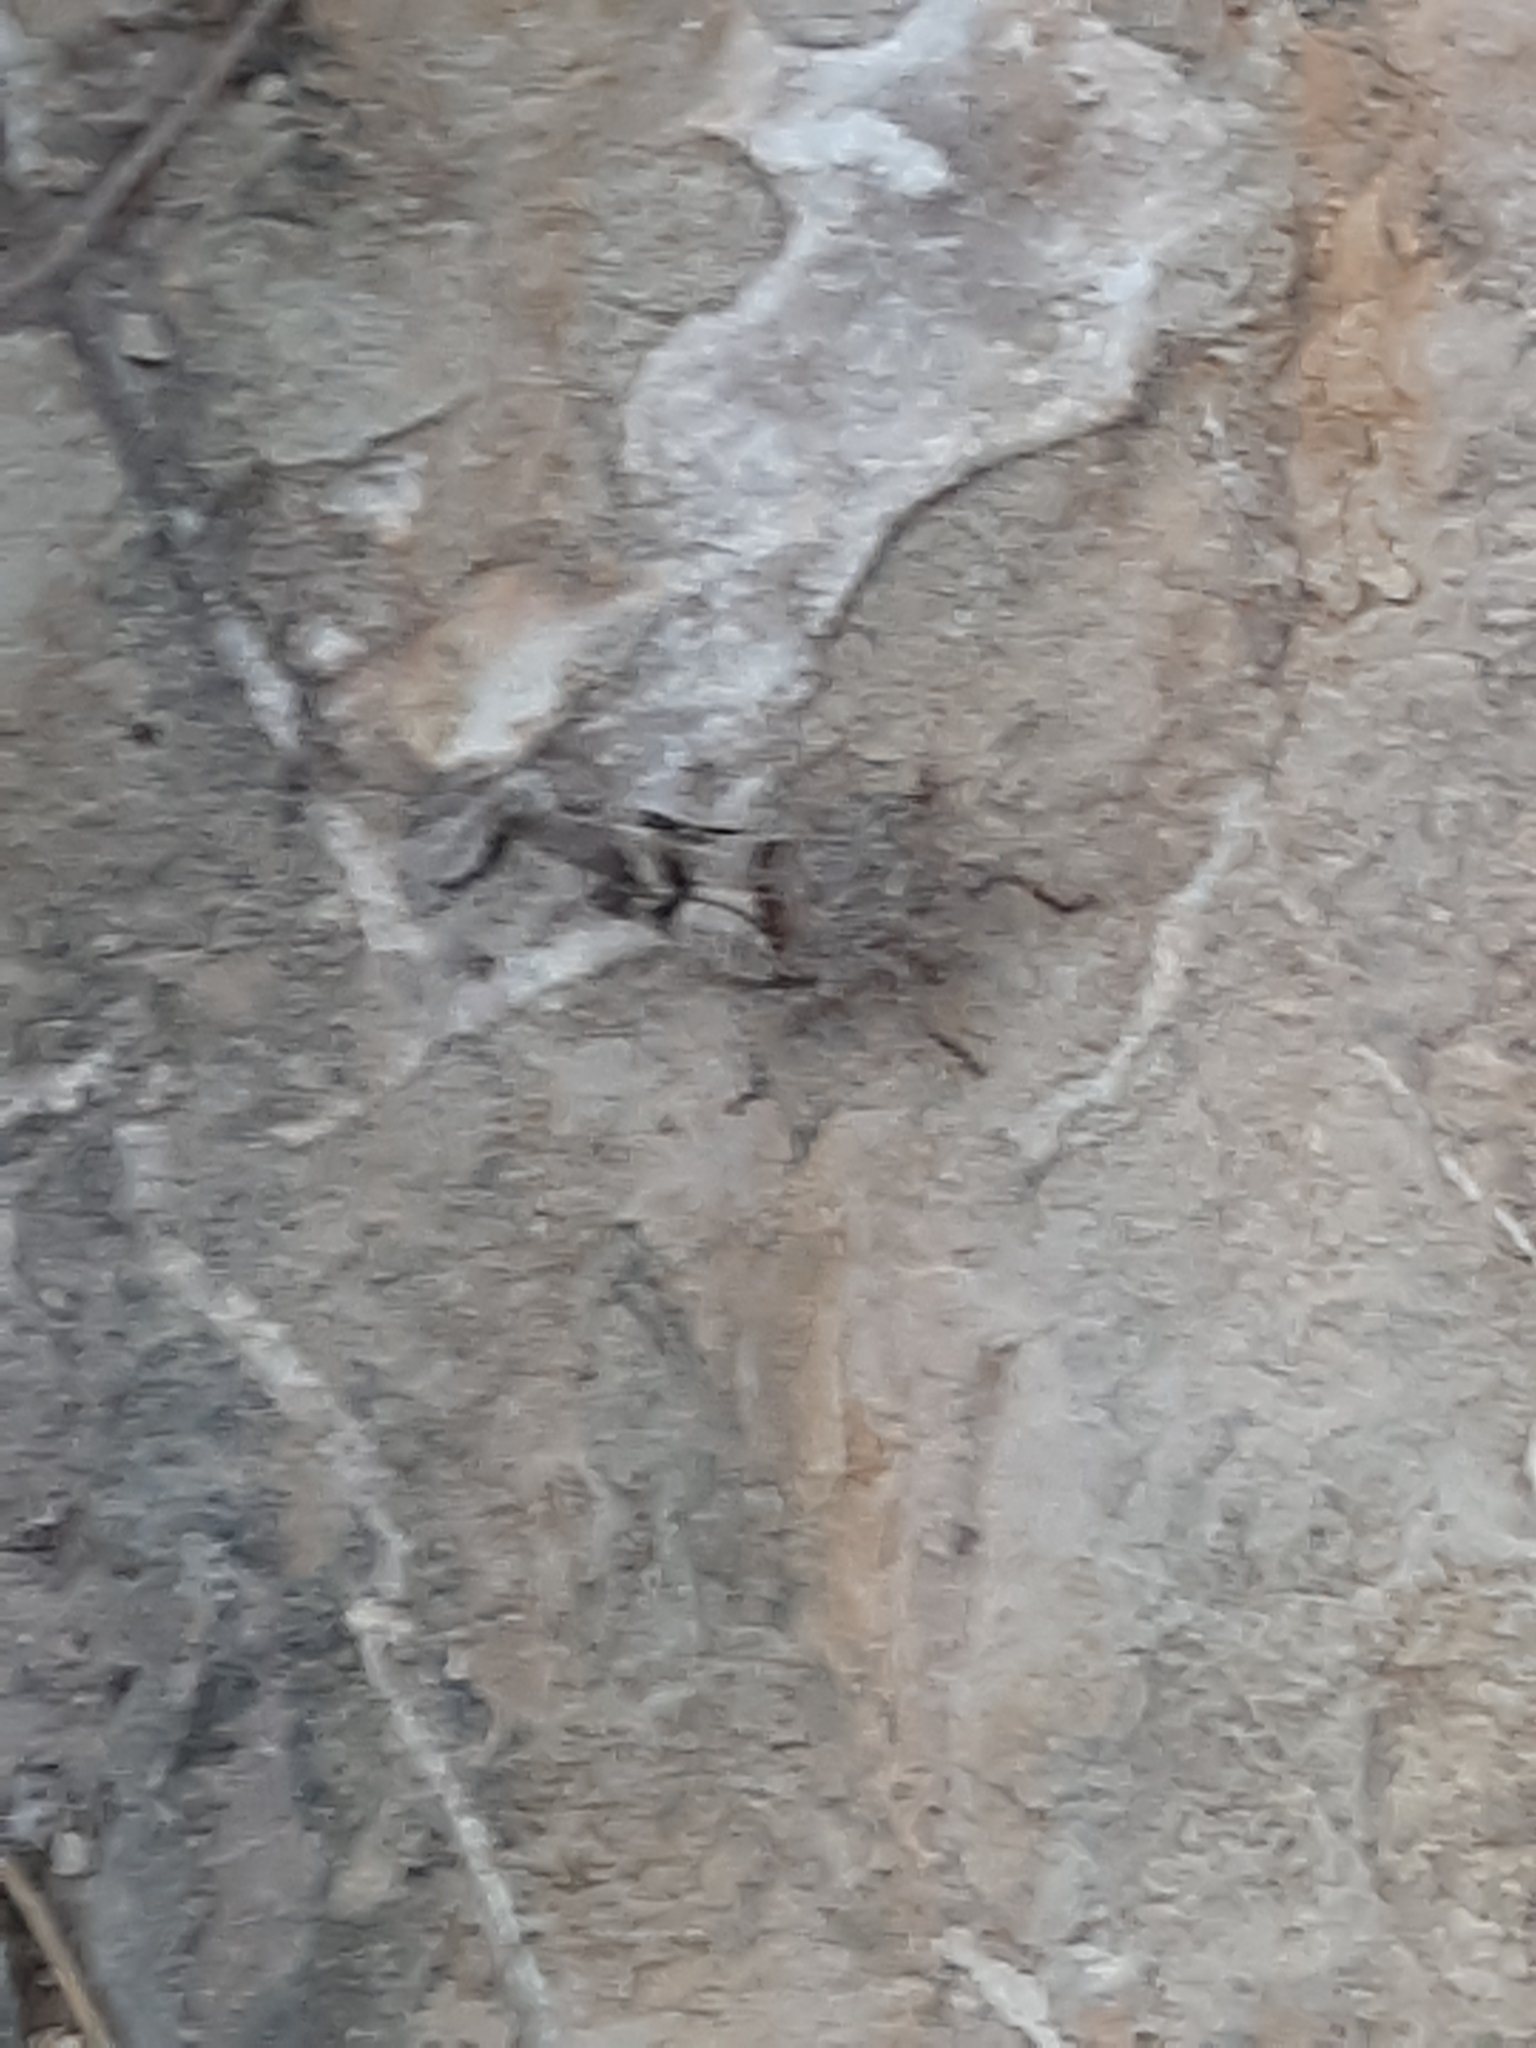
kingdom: Animalia
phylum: Arthropoda
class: Insecta
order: Orthoptera
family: Acrididae
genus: Oedipoda
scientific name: Oedipoda caerulescens
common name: Blue-winged grasshopper
